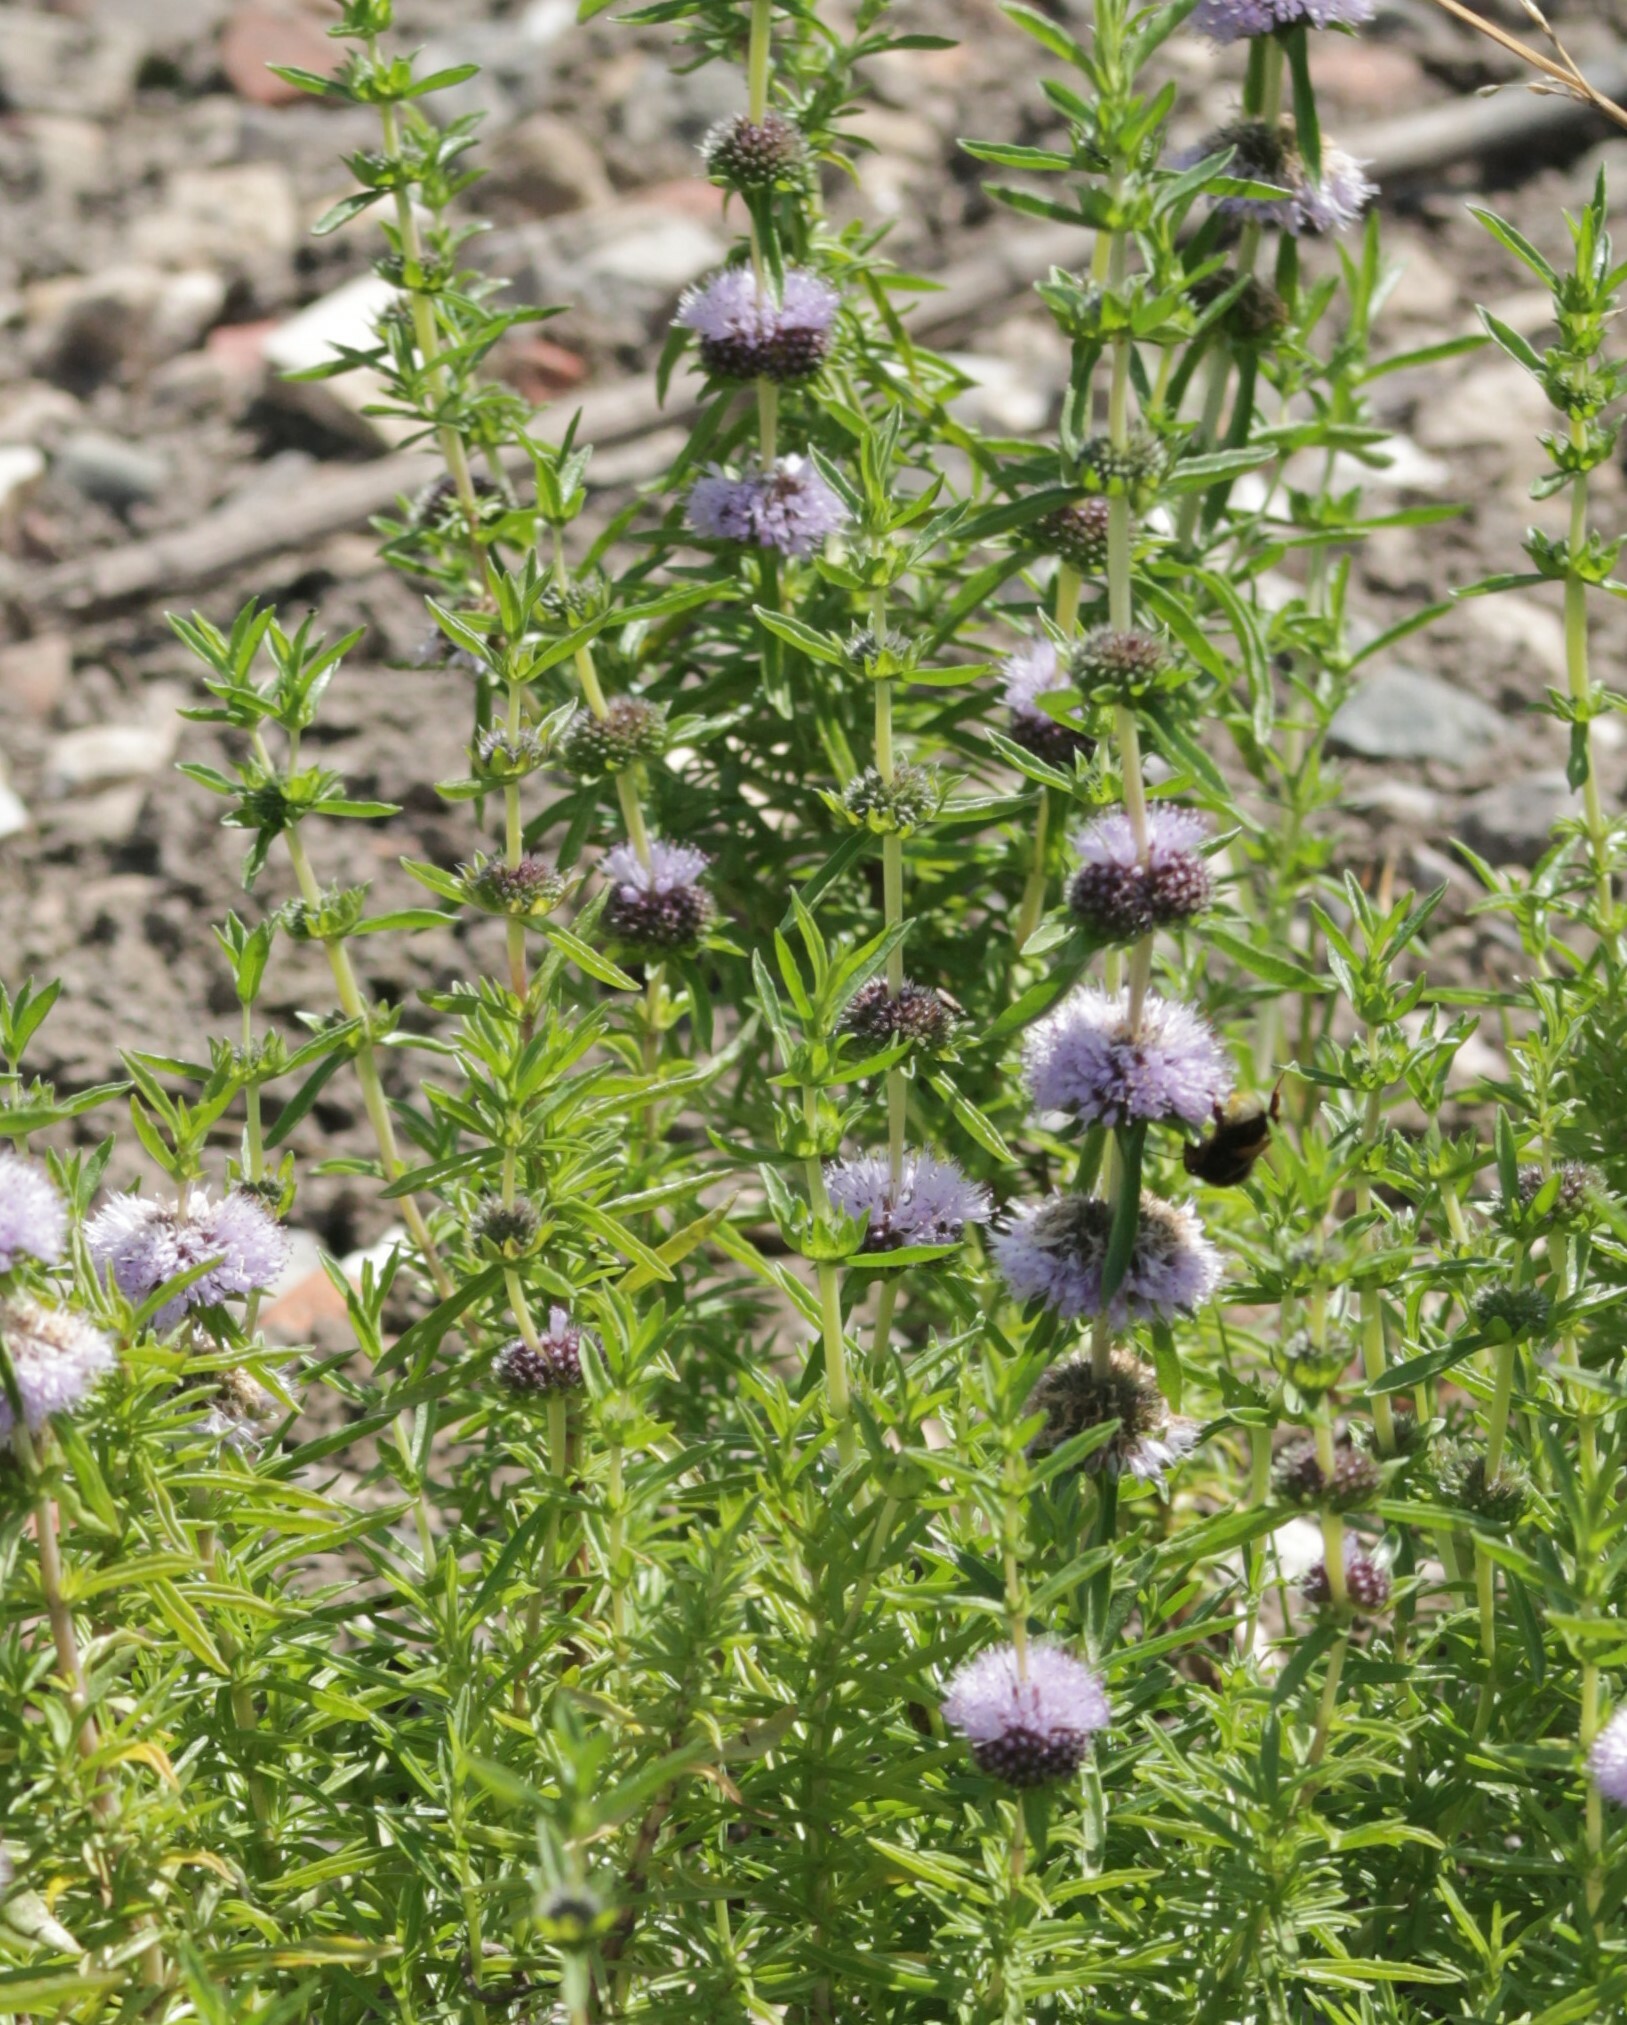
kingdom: Plantae
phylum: Tracheophyta
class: Magnoliopsida
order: Lamiales
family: Lamiaceae
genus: Mentha
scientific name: Mentha cervina
